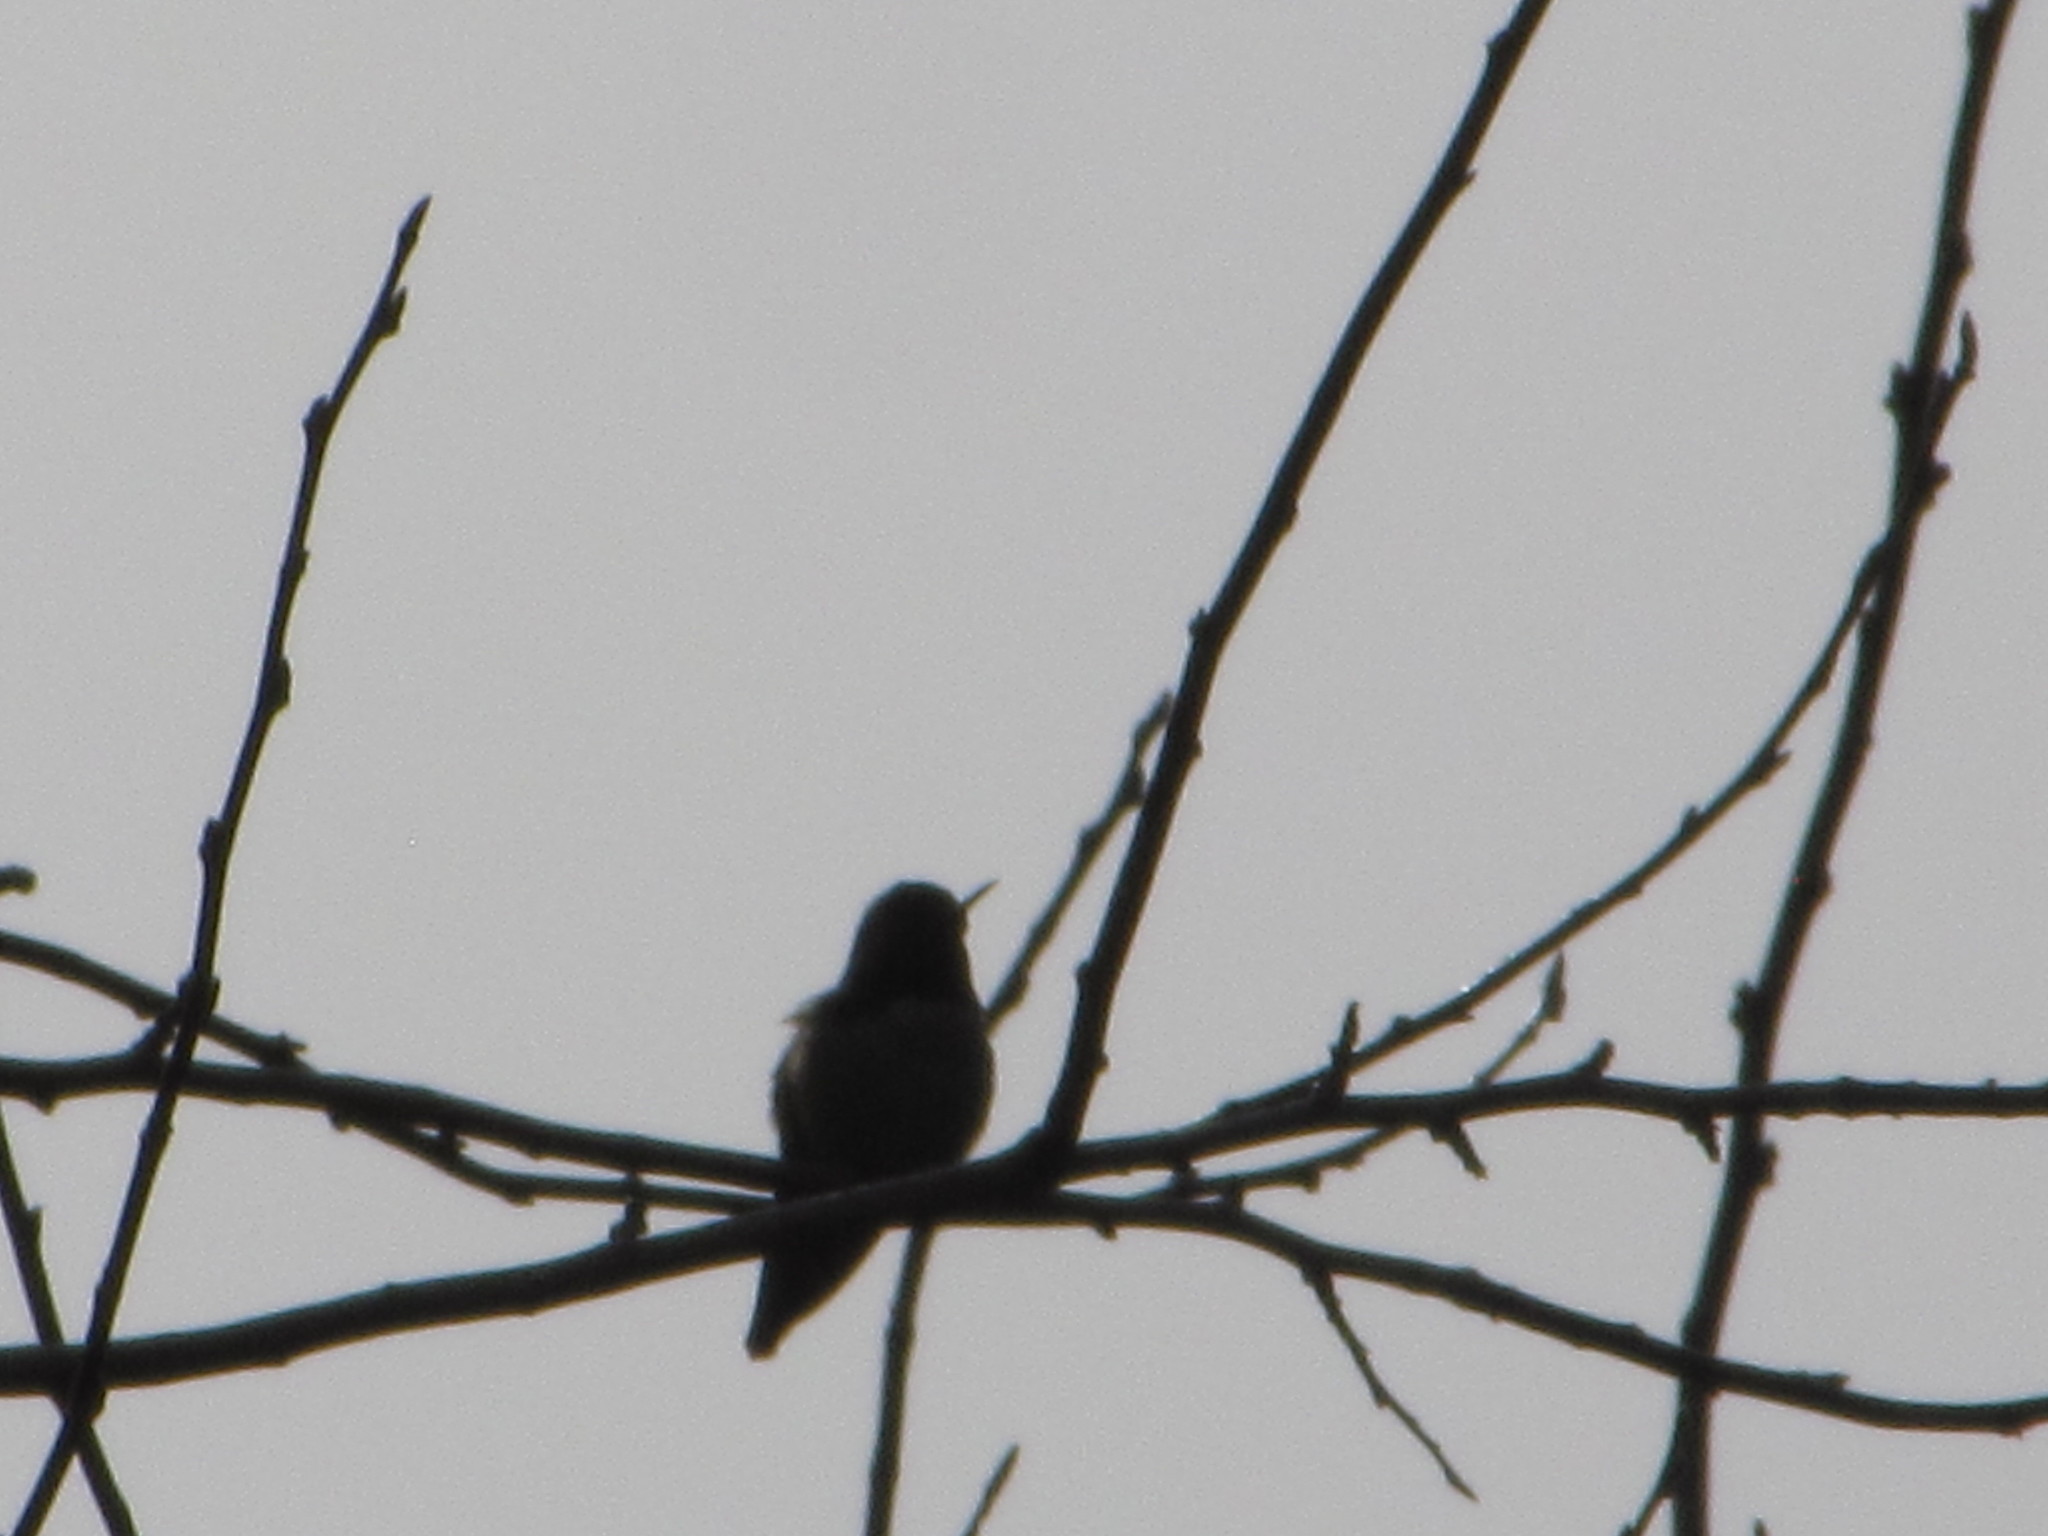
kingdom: Animalia
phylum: Chordata
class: Aves
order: Apodiformes
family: Trochilidae
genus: Calypte
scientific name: Calypte anna
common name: Anna's hummingbird
